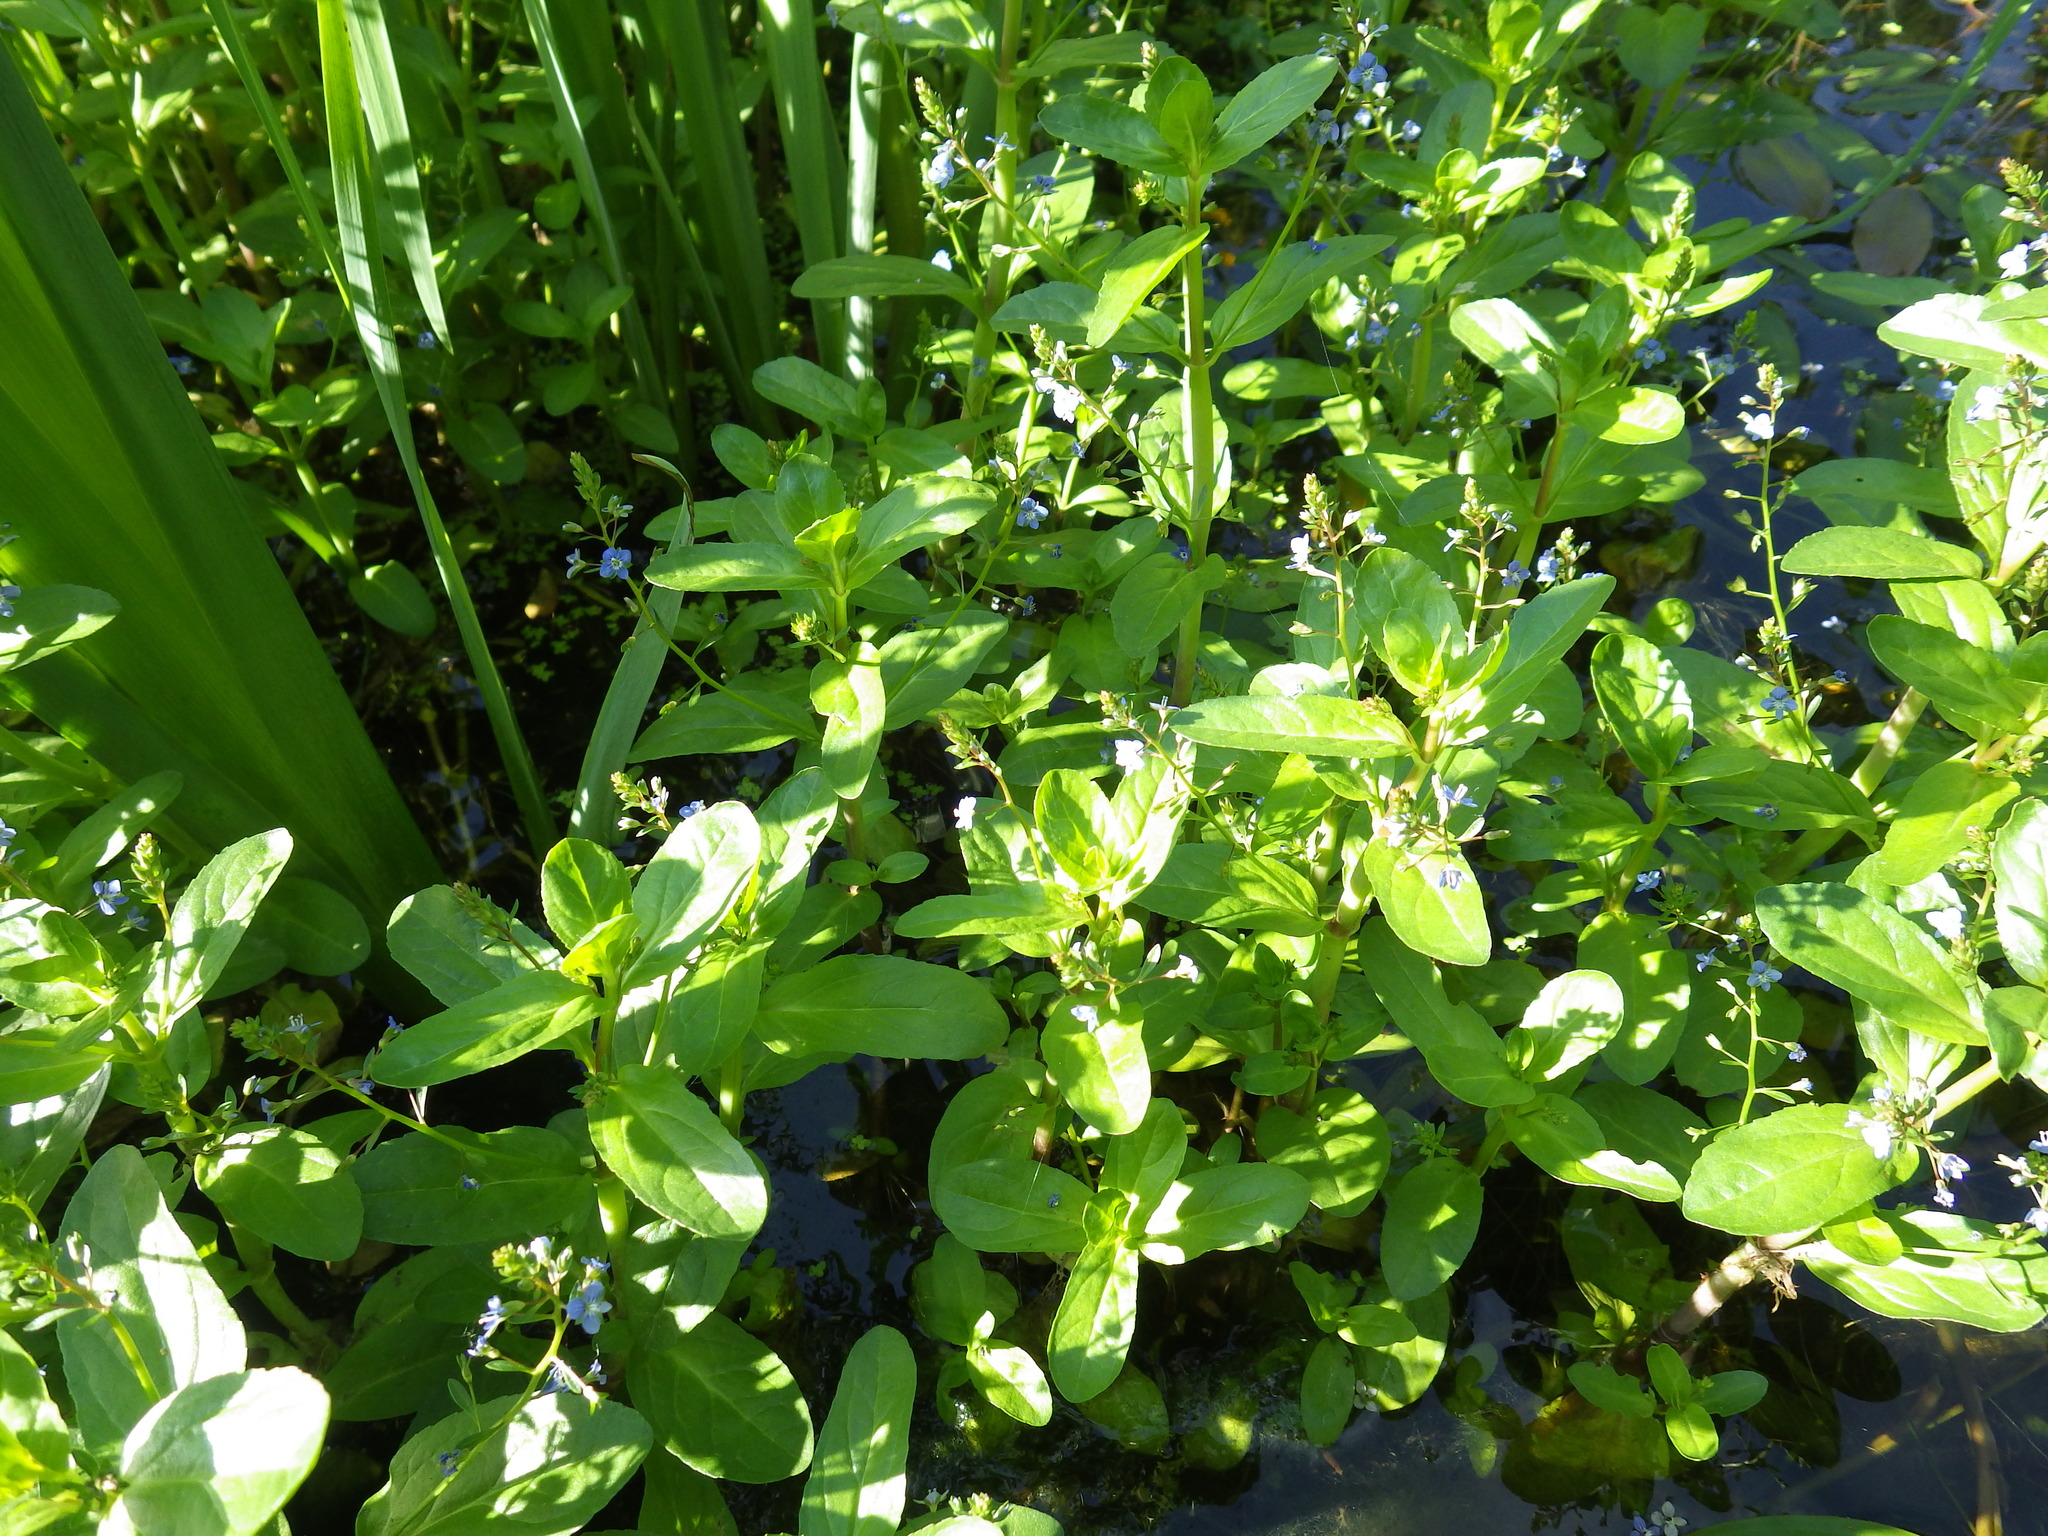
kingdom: Plantae
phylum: Tracheophyta
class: Magnoliopsida
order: Lamiales
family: Plantaginaceae
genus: Veronica
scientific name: Veronica beccabunga
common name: Brooklime
